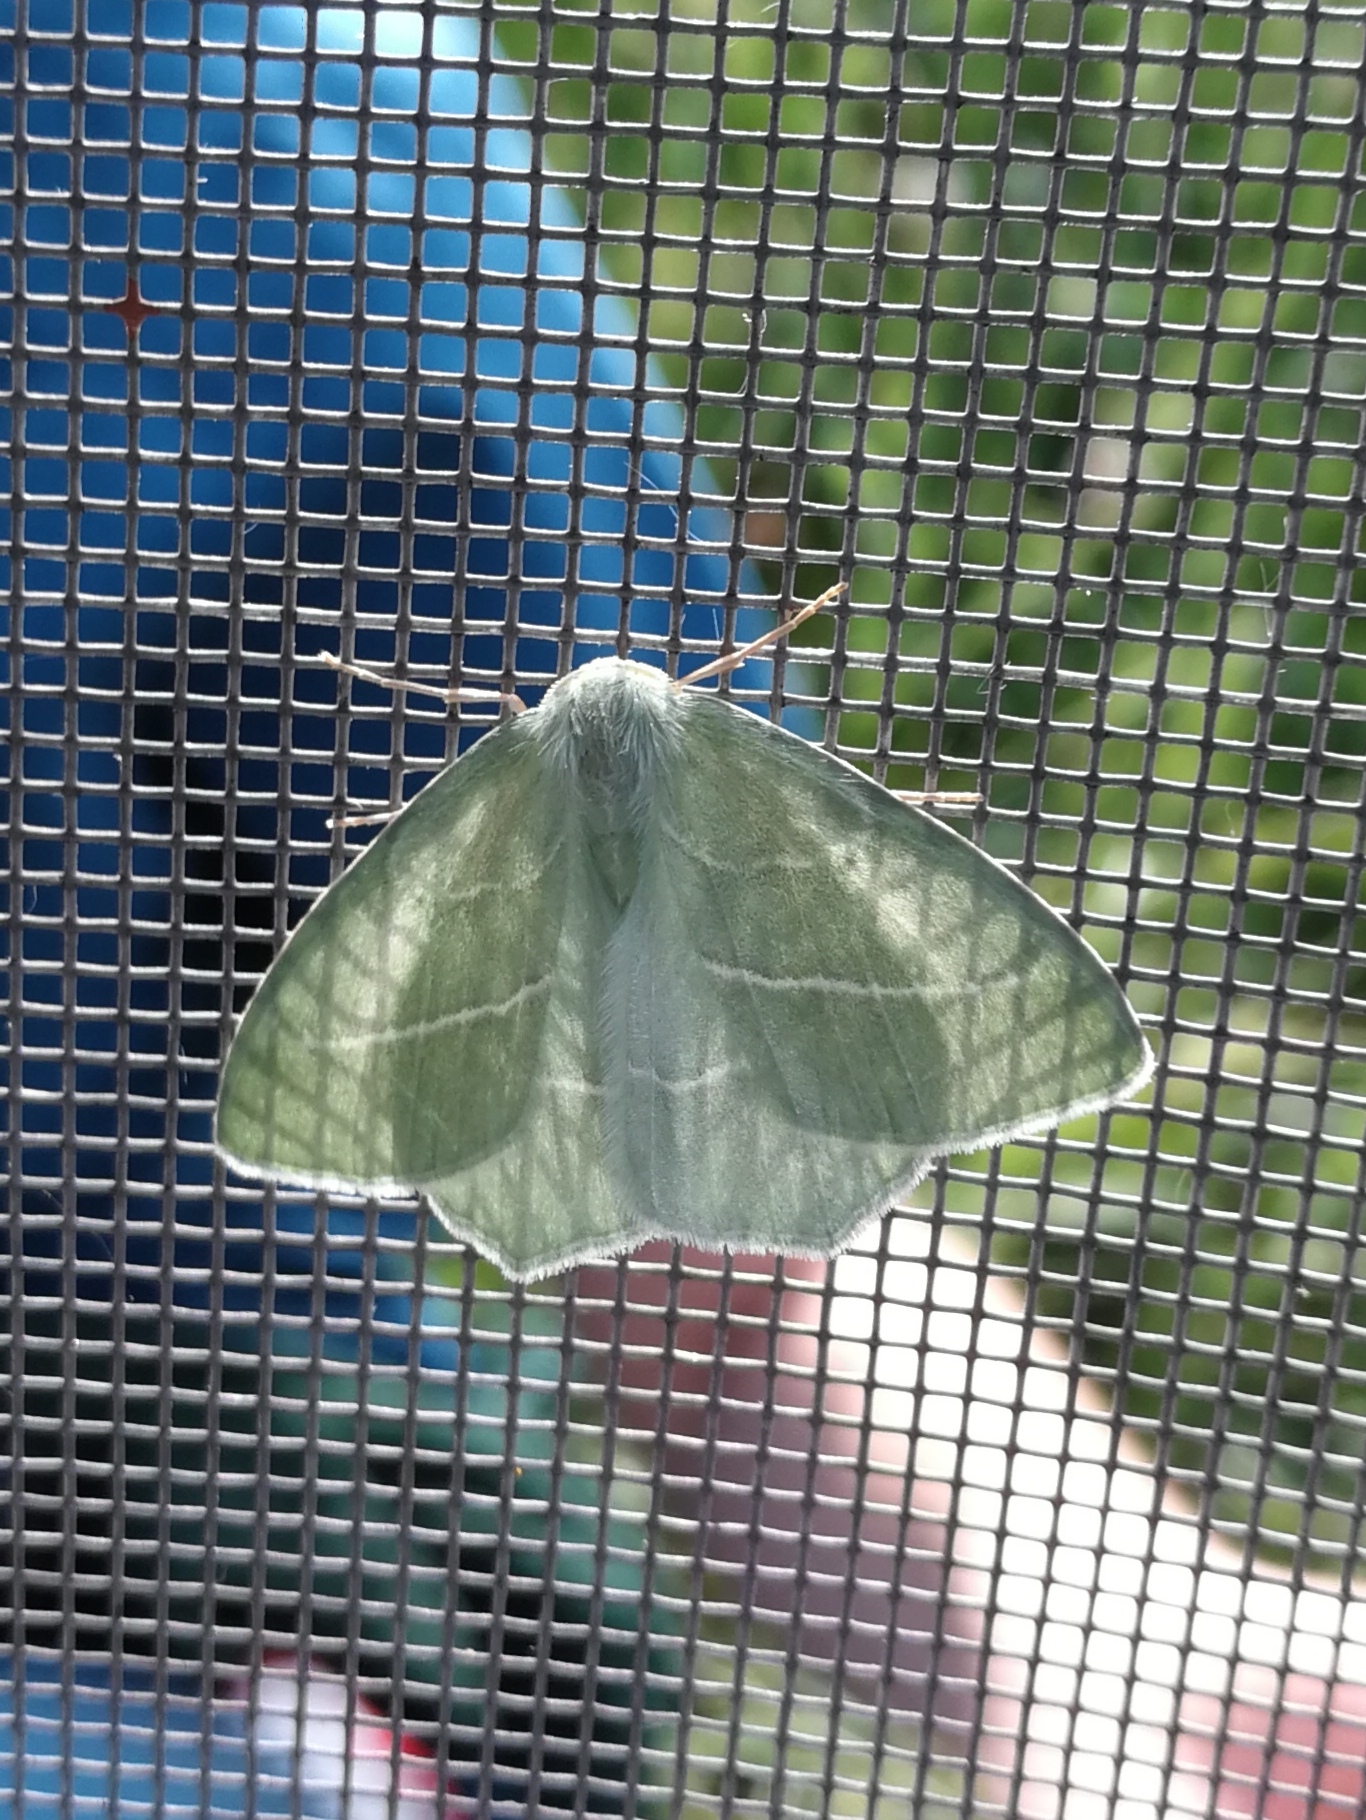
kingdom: Animalia
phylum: Arthropoda
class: Insecta
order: Lepidoptera
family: Geometridae
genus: Hemistola
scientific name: Hemistola chrysoprasaria
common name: Small emerald
